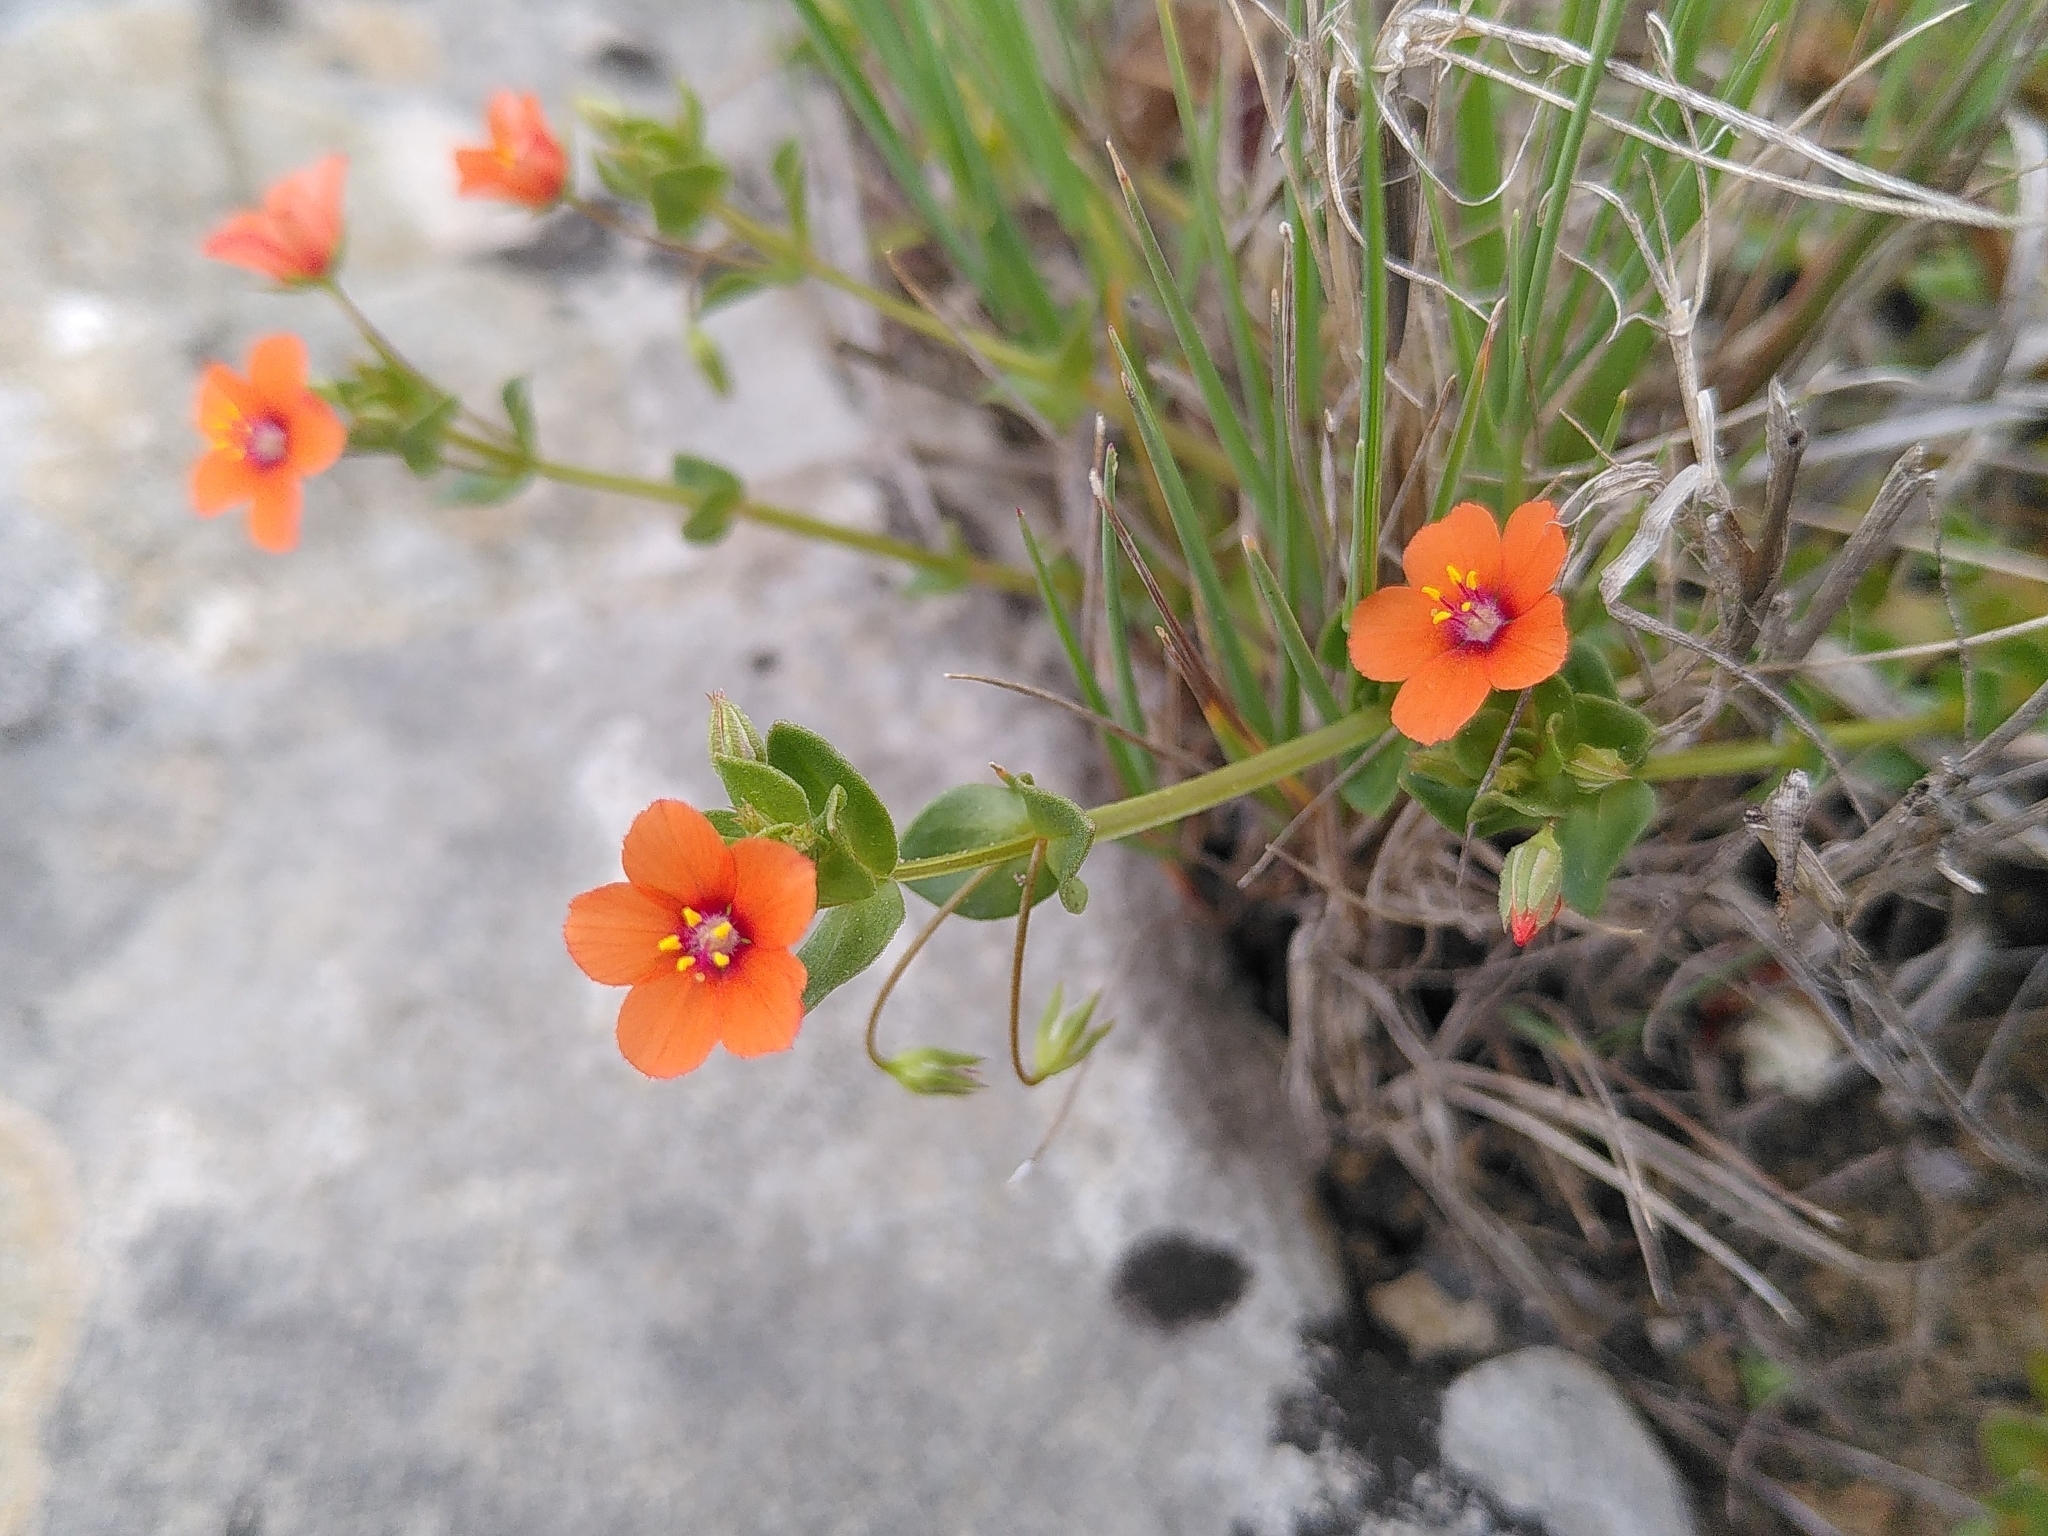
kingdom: Plantae
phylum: Tracheophyta
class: Magnoliopsida
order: Ericales
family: Primulaceae
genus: Lysimachia
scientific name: Lysimachia arvensis
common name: Scarlet pimpernel
